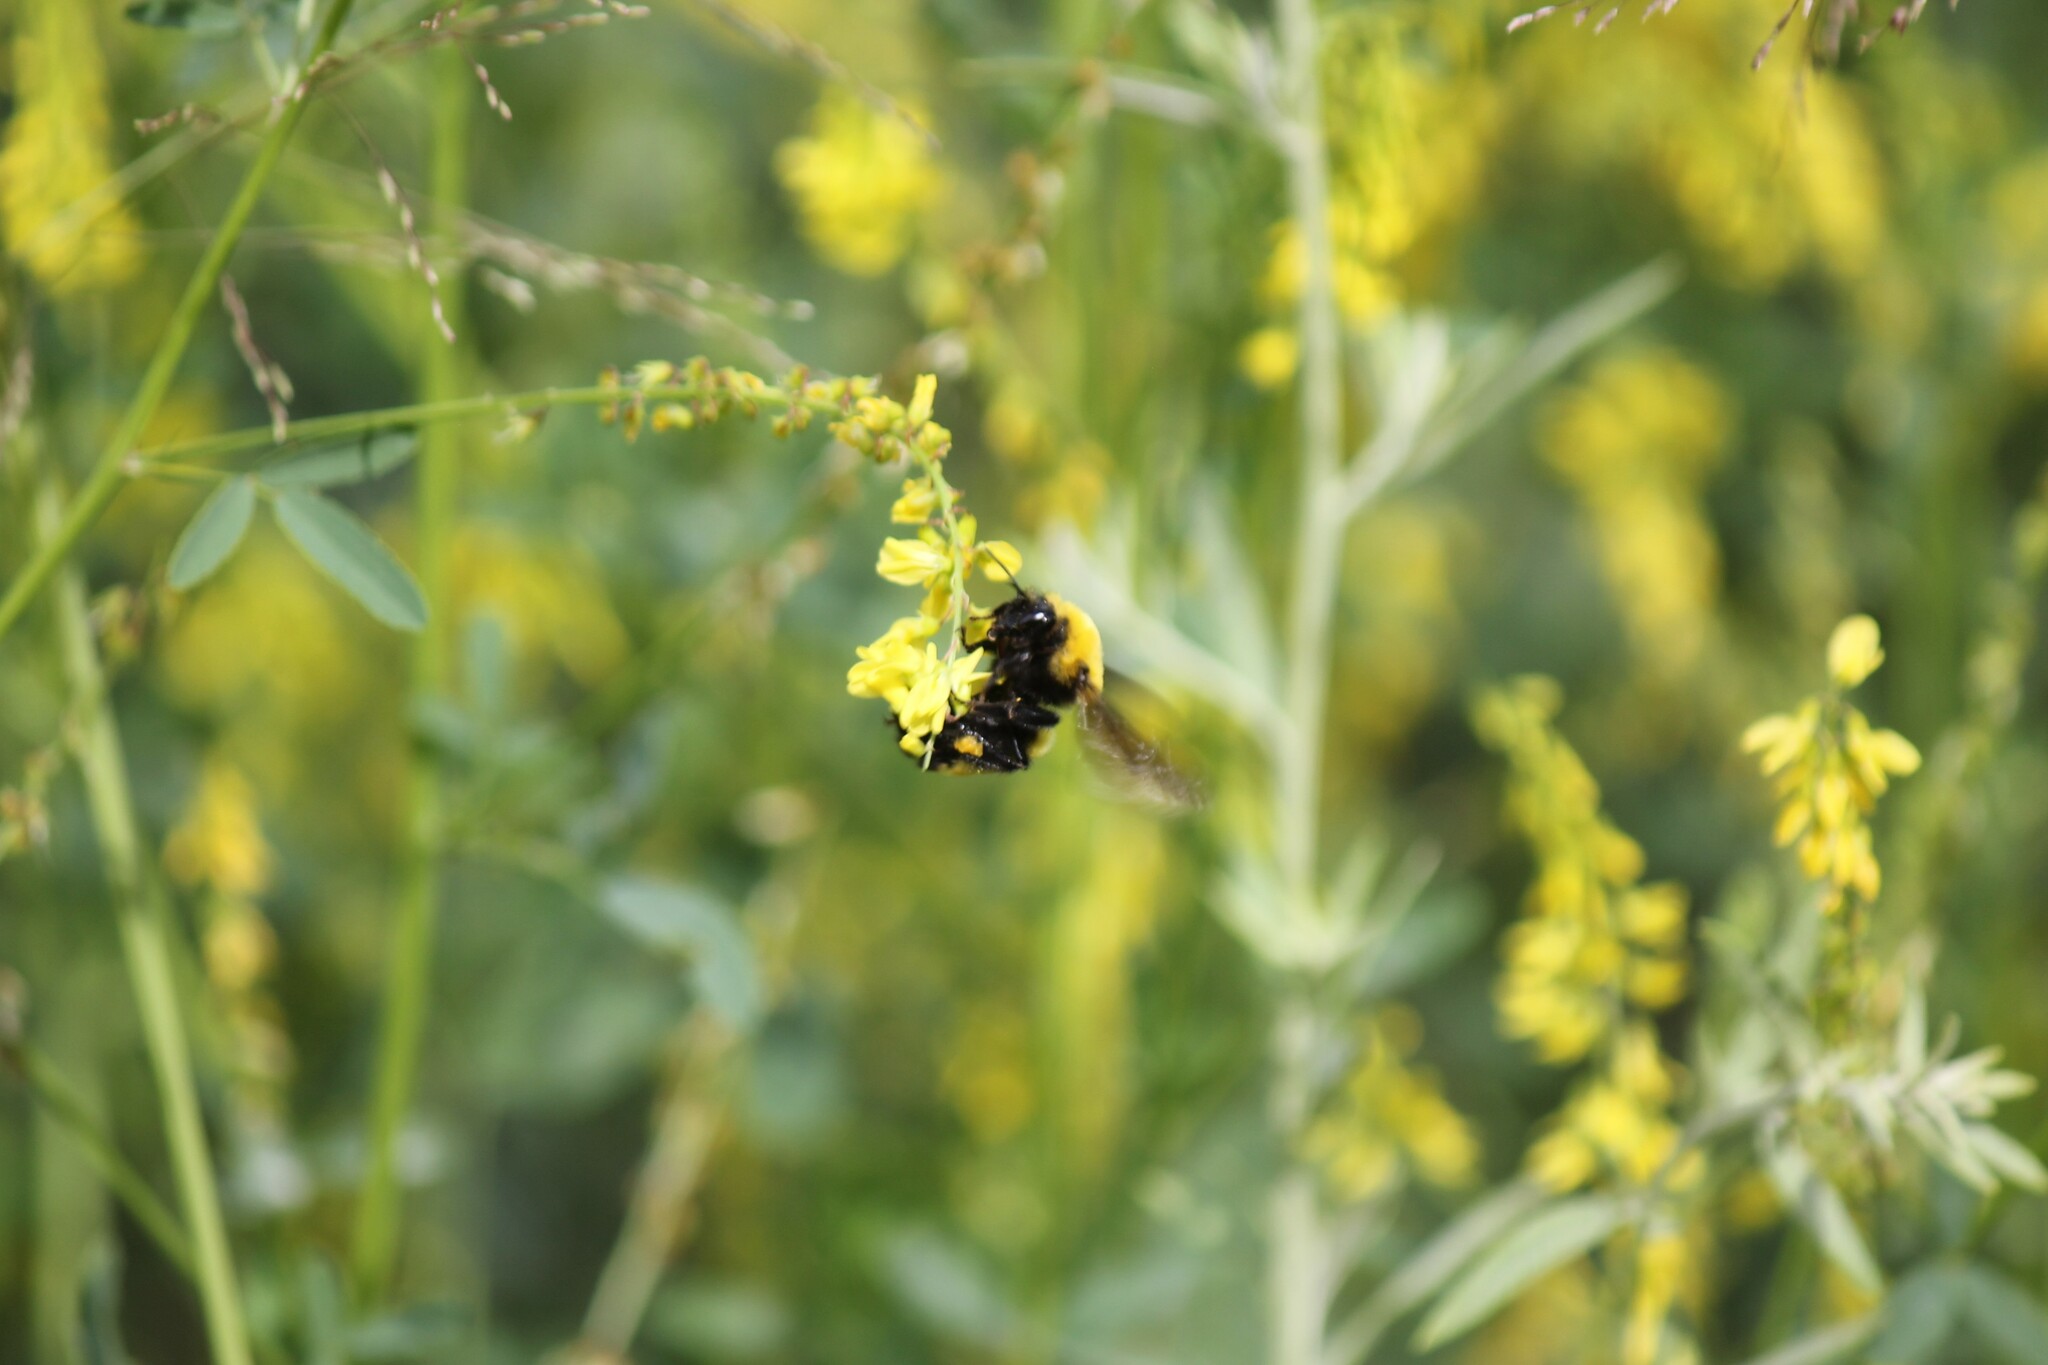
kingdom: Animalia
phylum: Arthropoda
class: Insecta
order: Hymenoptera
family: Apidae
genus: Bombus
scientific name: Bombus morrisoni
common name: Morrison bumble bee
